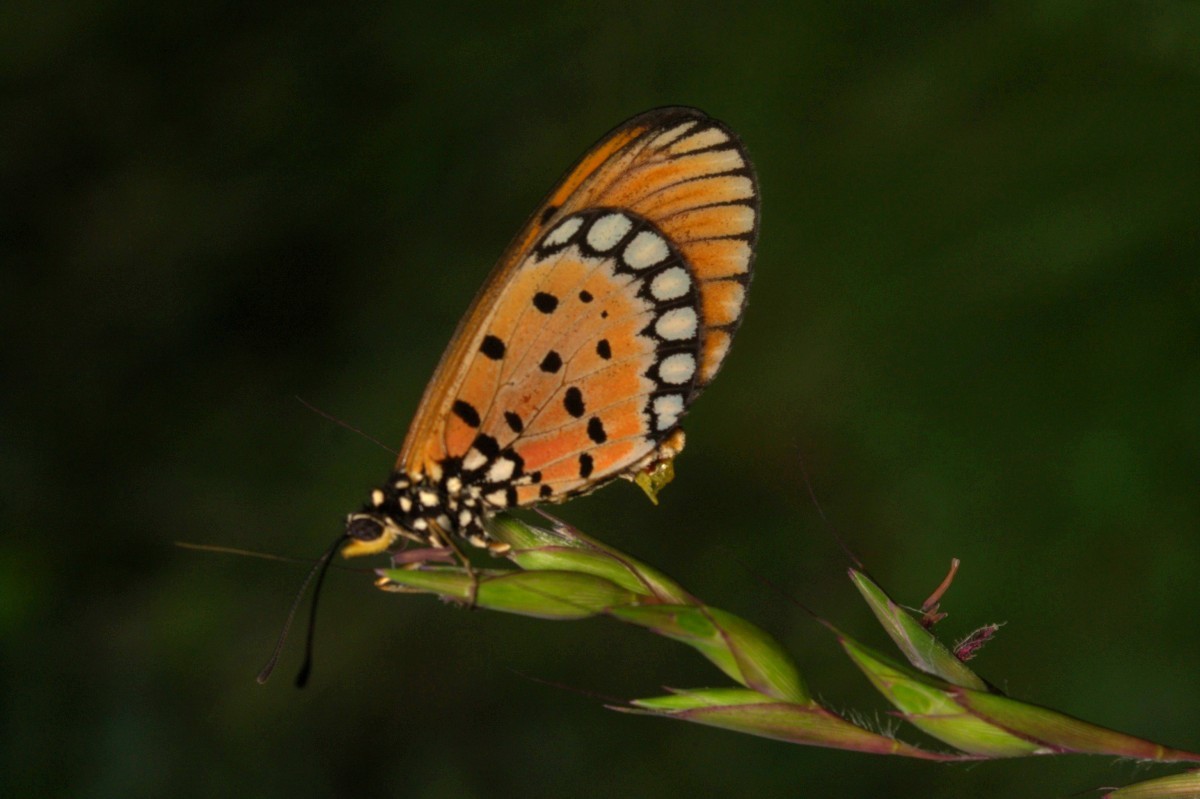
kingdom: Animalia
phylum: Arthropoda
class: Insecta
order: Lepidoptera
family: Nymphalidae
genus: Acraea
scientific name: Acraea terpsicore
